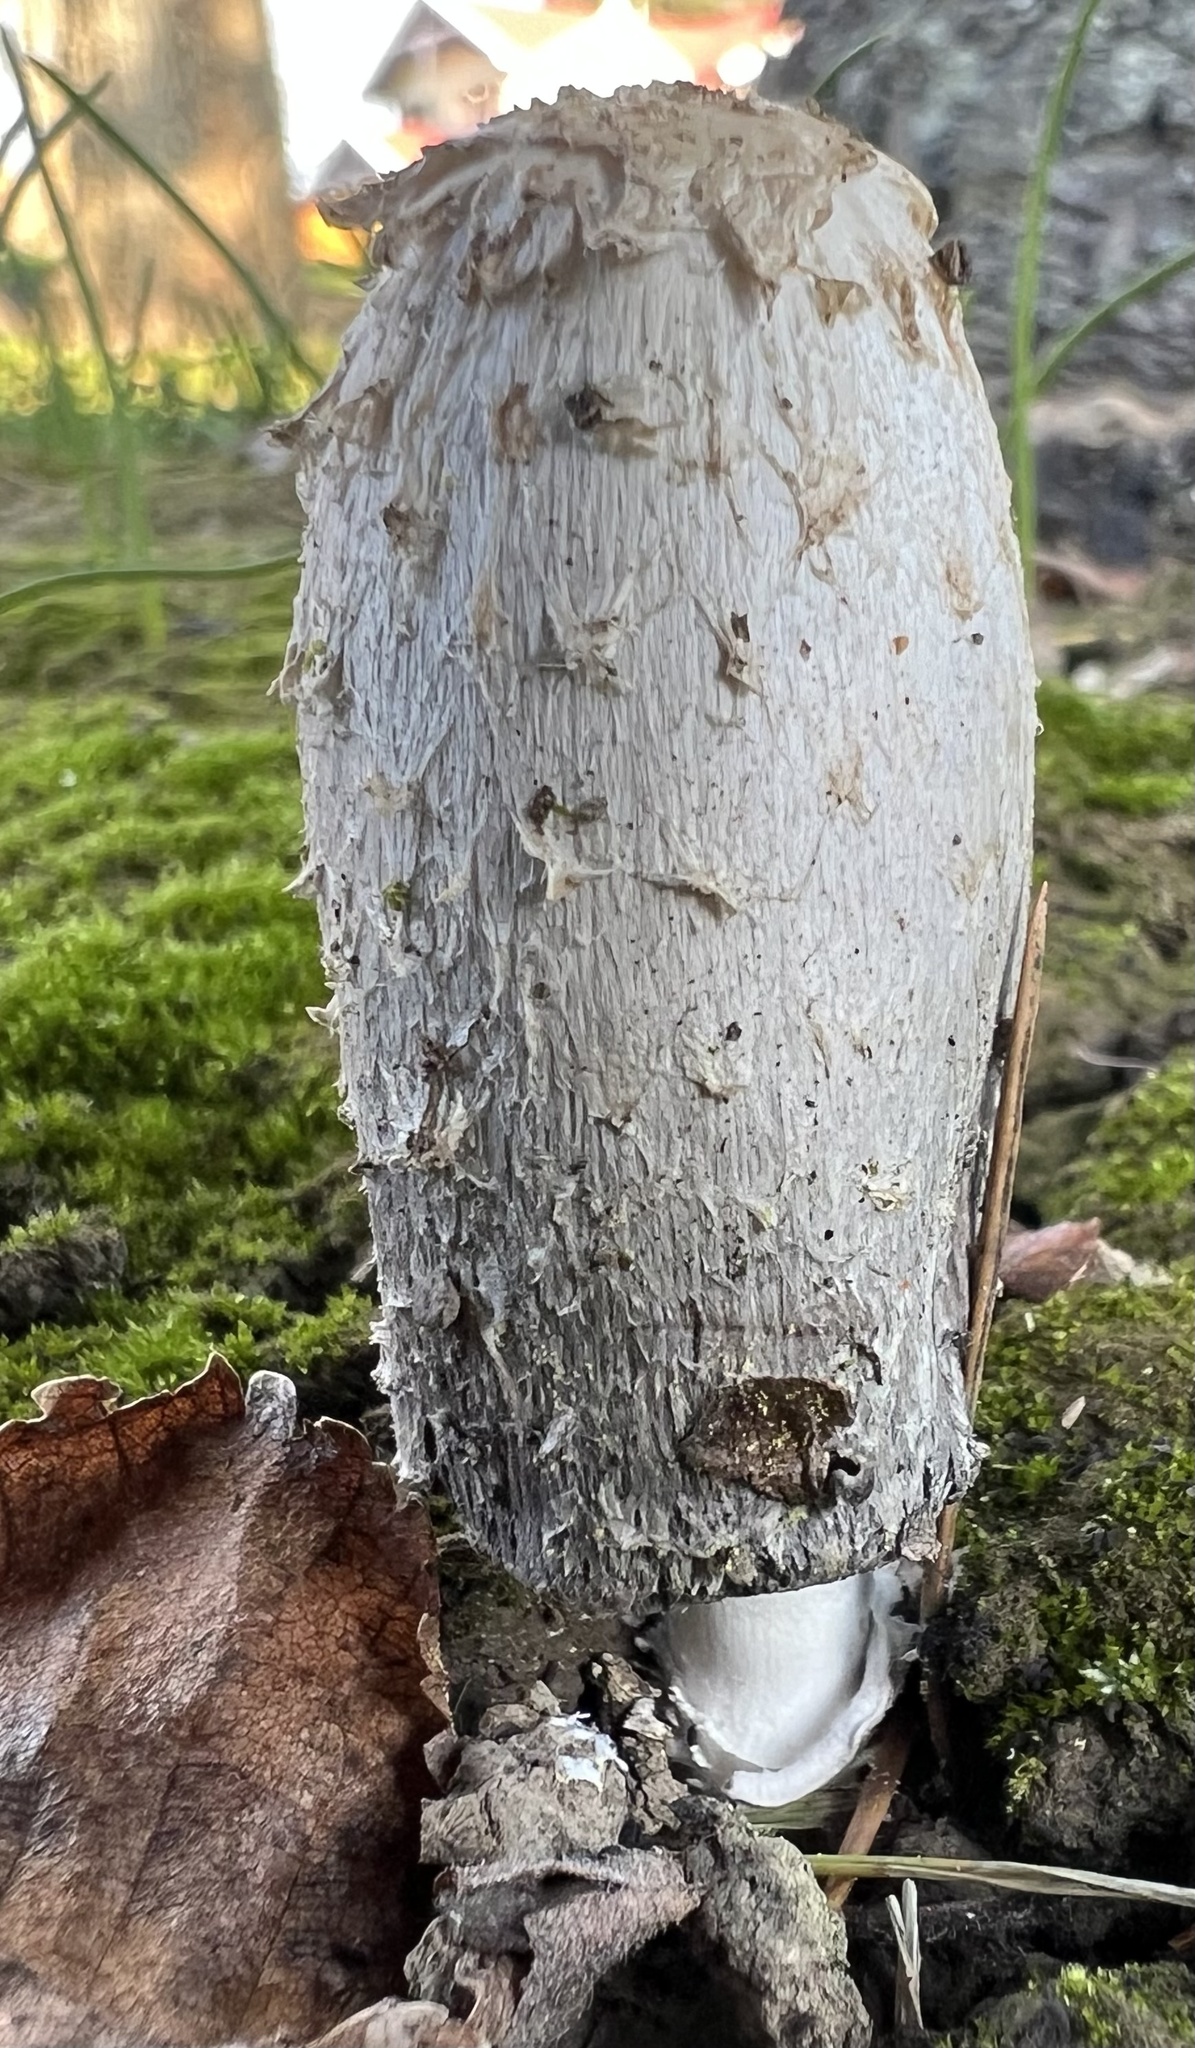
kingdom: Fungi
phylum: Basidiomycota
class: Agaricomycetes
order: Agaricales
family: Agaricaceae
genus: Coprinus
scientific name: Coprinus comatus
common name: Lawyer's wig
